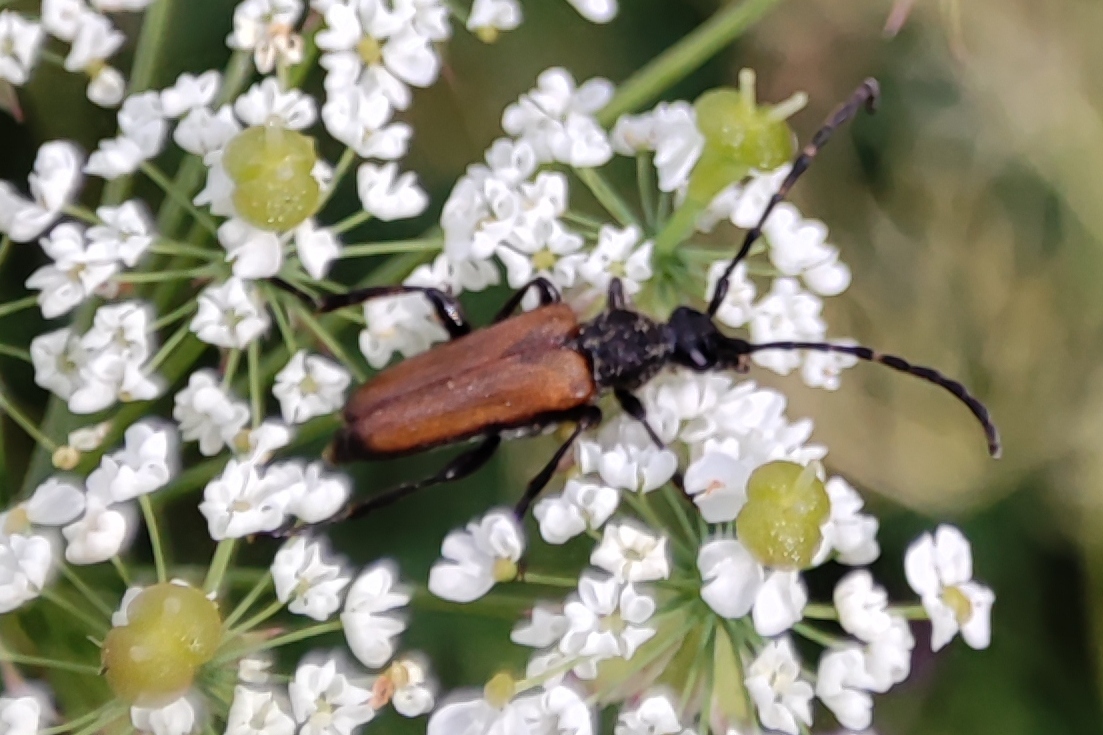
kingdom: Animalia
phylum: Arthropoda
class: Insecta
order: Coleoptera
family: Cerambycidae
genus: Paracorymbia
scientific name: Paracorymbia maculicornis
